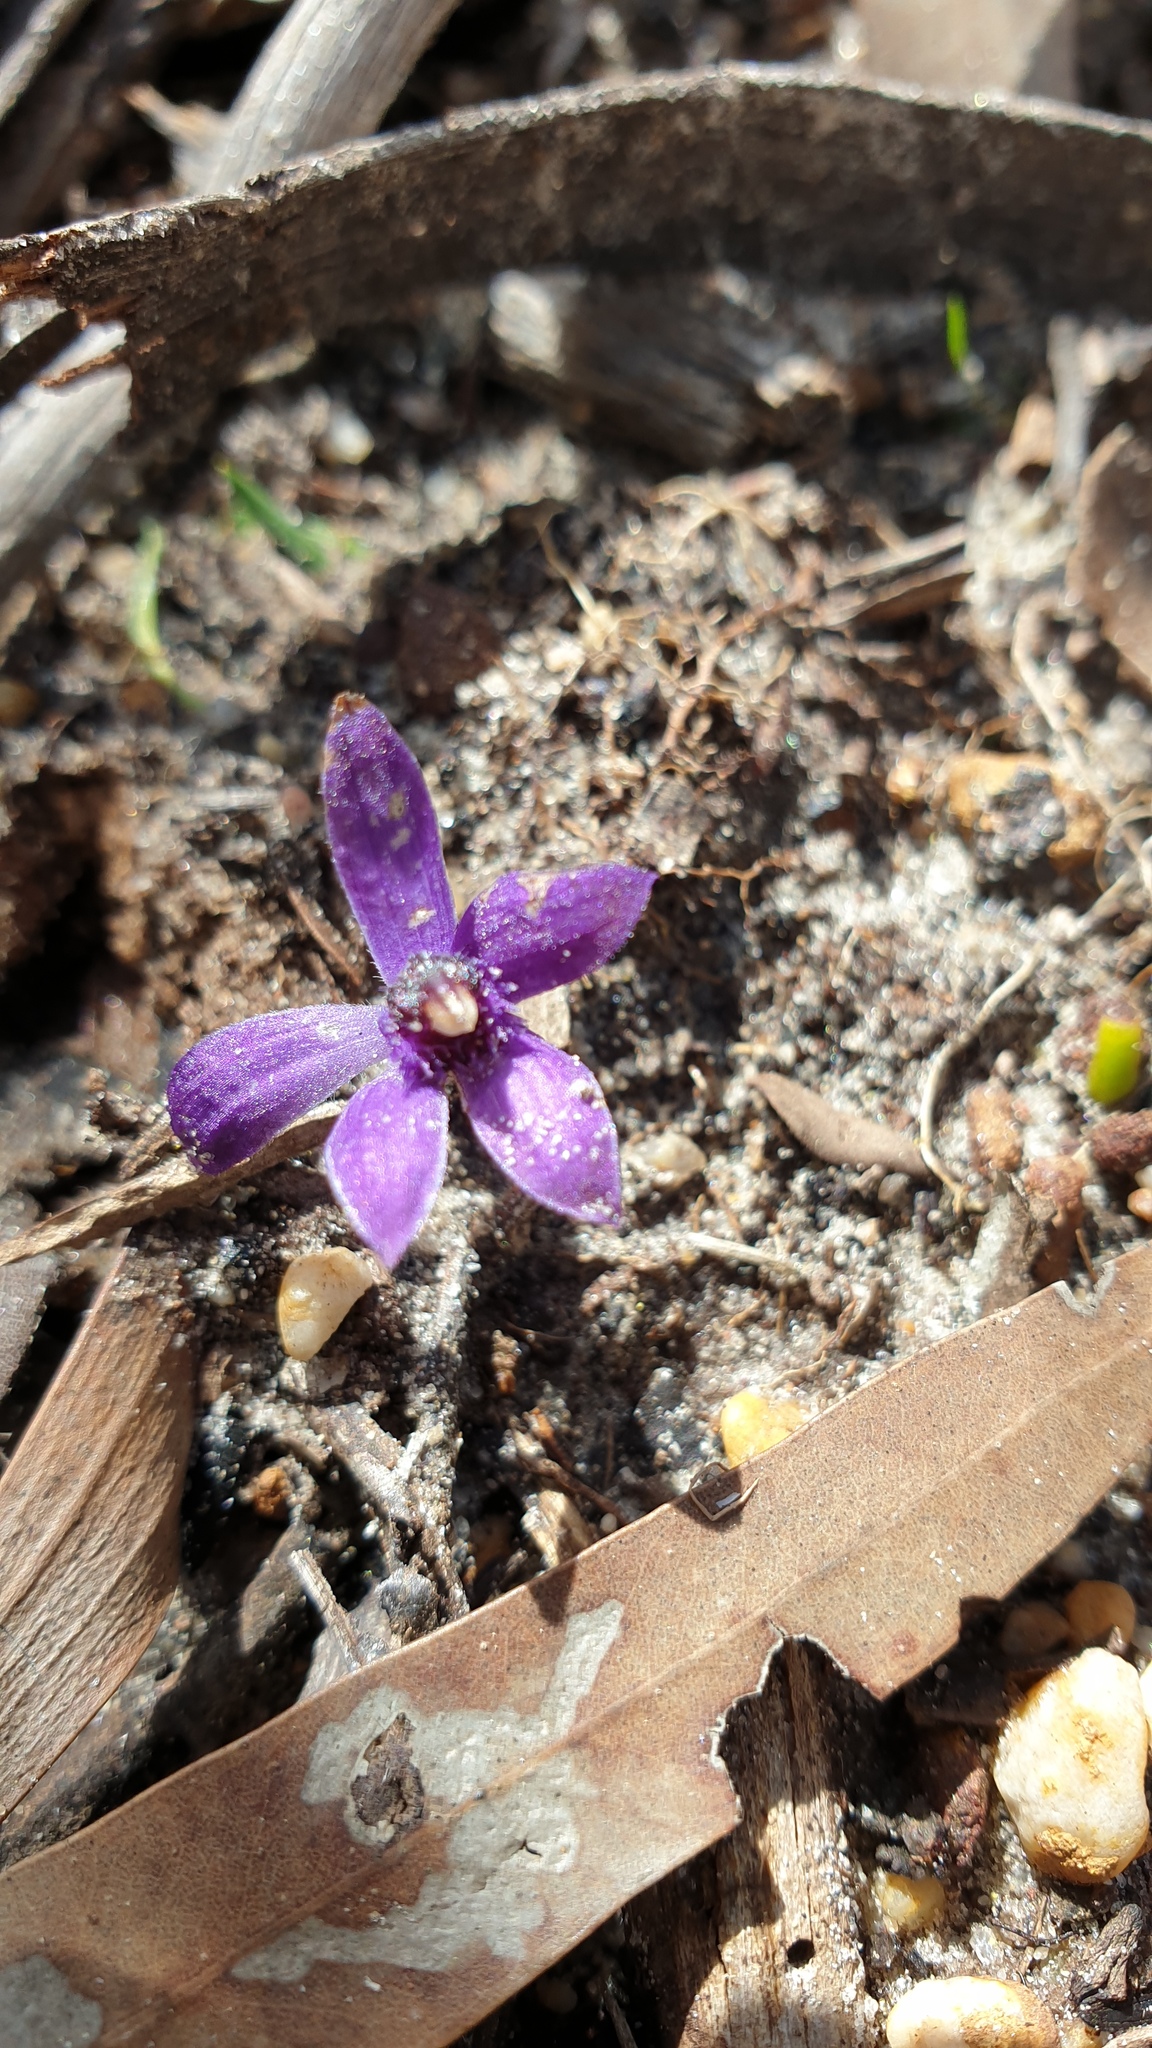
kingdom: Plantae
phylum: Tracheophyta
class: Liliopsida
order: Asparagales
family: Orchidaceae
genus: Pheladenia
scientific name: Pheladenia deformis
